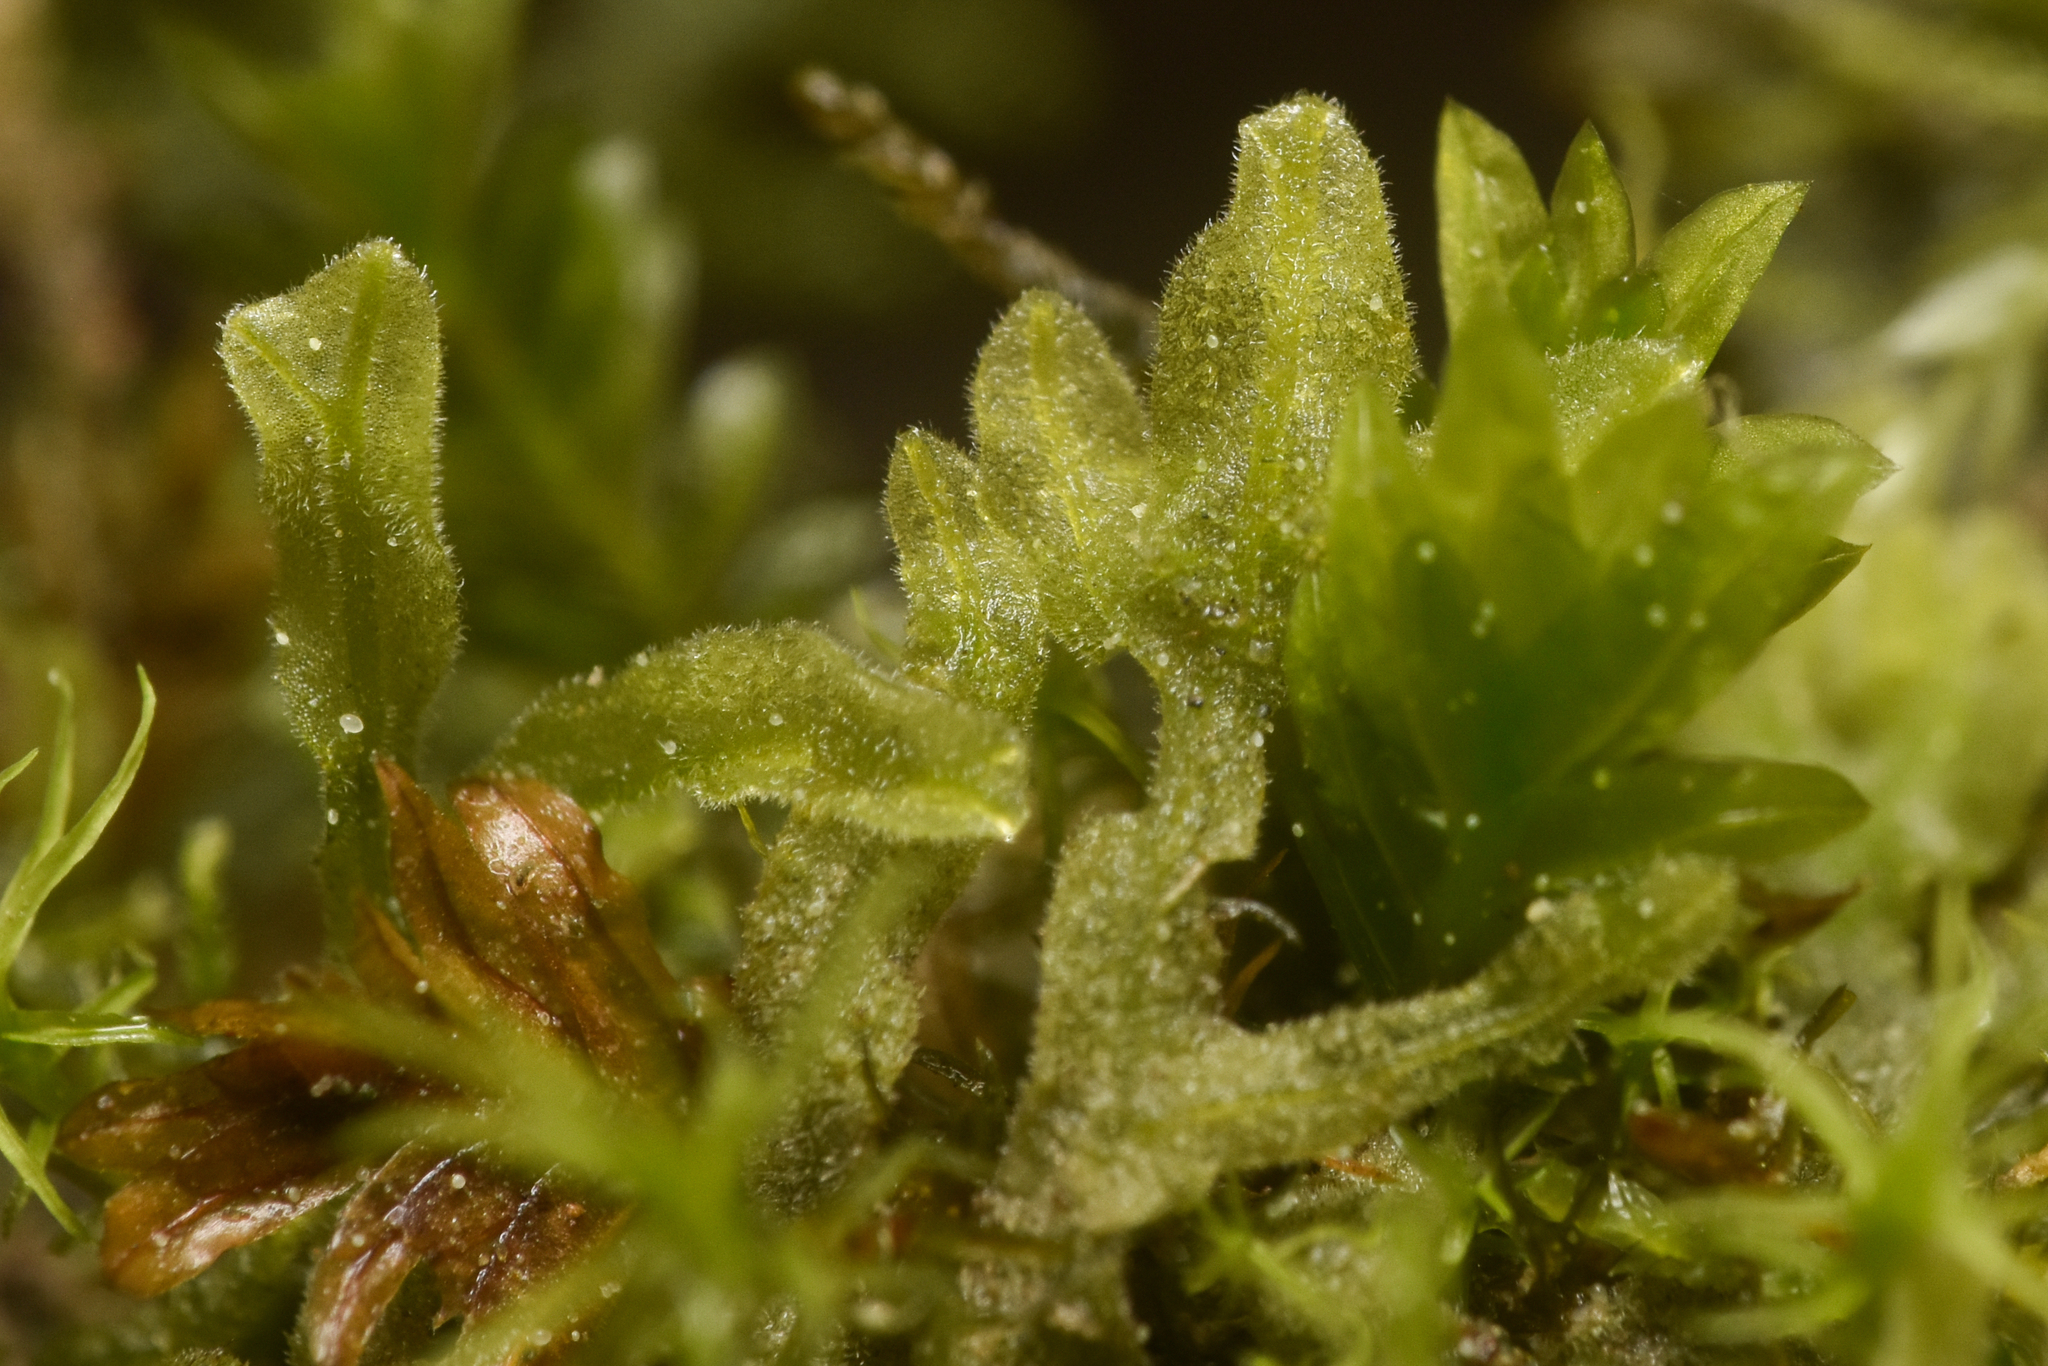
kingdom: Plantae
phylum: Marchantiophyta
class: Jungermanniopsida
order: Metzgeriales
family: Metzgeriaceae
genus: Metzgeria
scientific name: Metzgeria pubescens
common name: Downy veilwort
